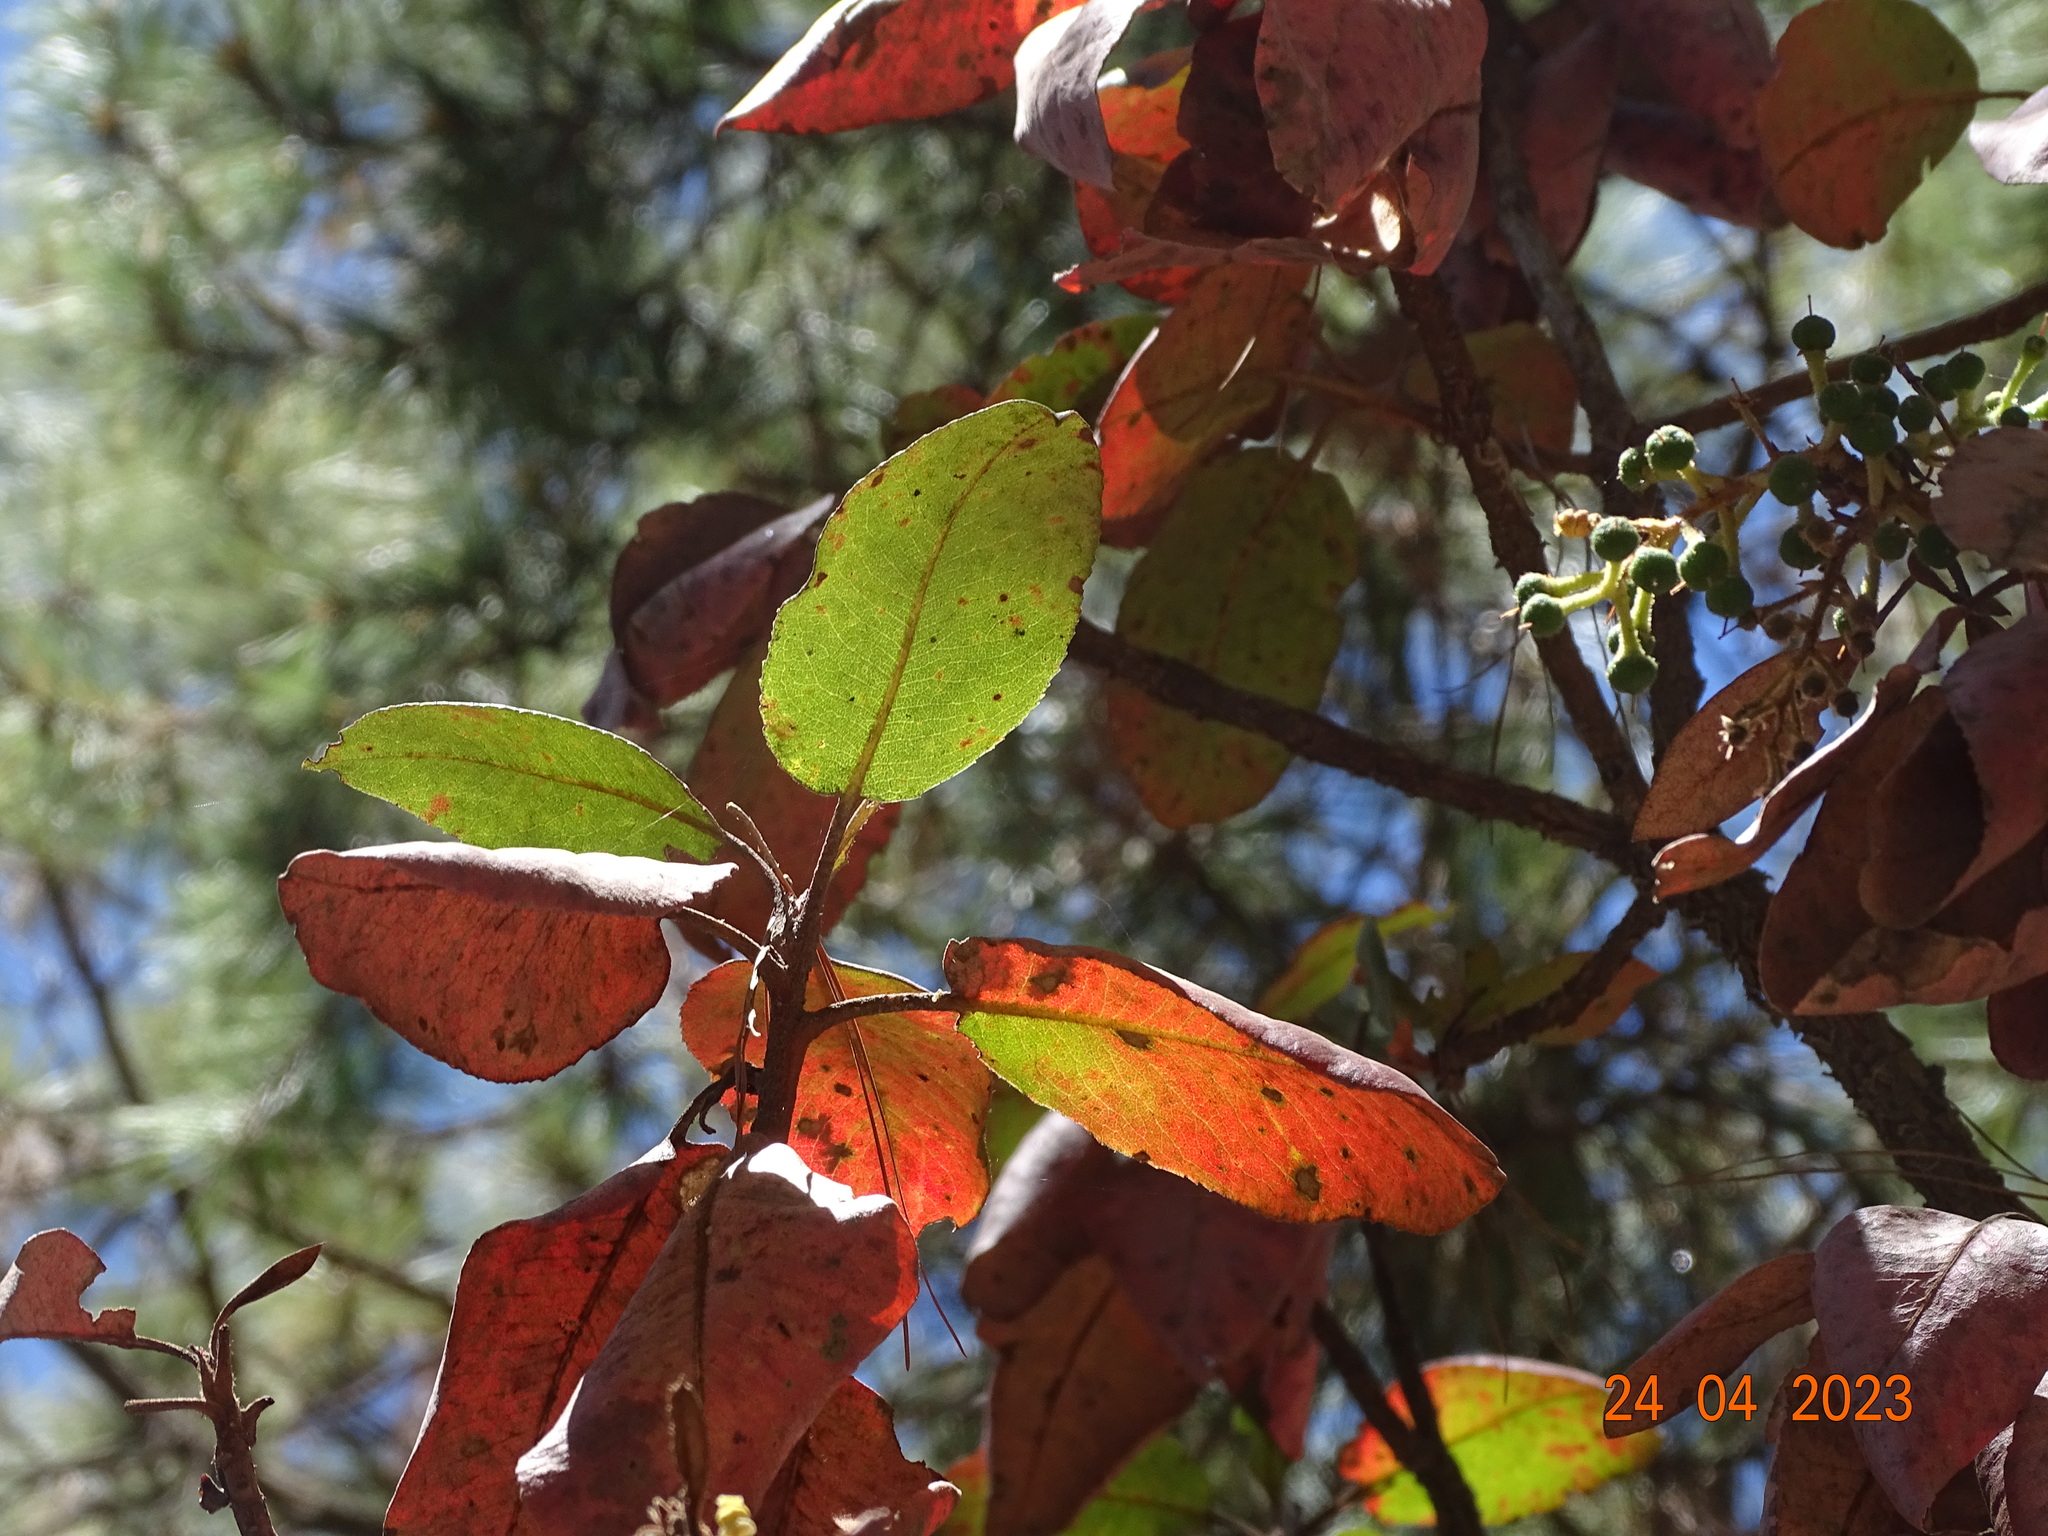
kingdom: Plantae
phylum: Tracheophyta
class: Magnoliopsida
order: Ericales
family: Ericaceae
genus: Arbutus
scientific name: Arbutus madrensis
